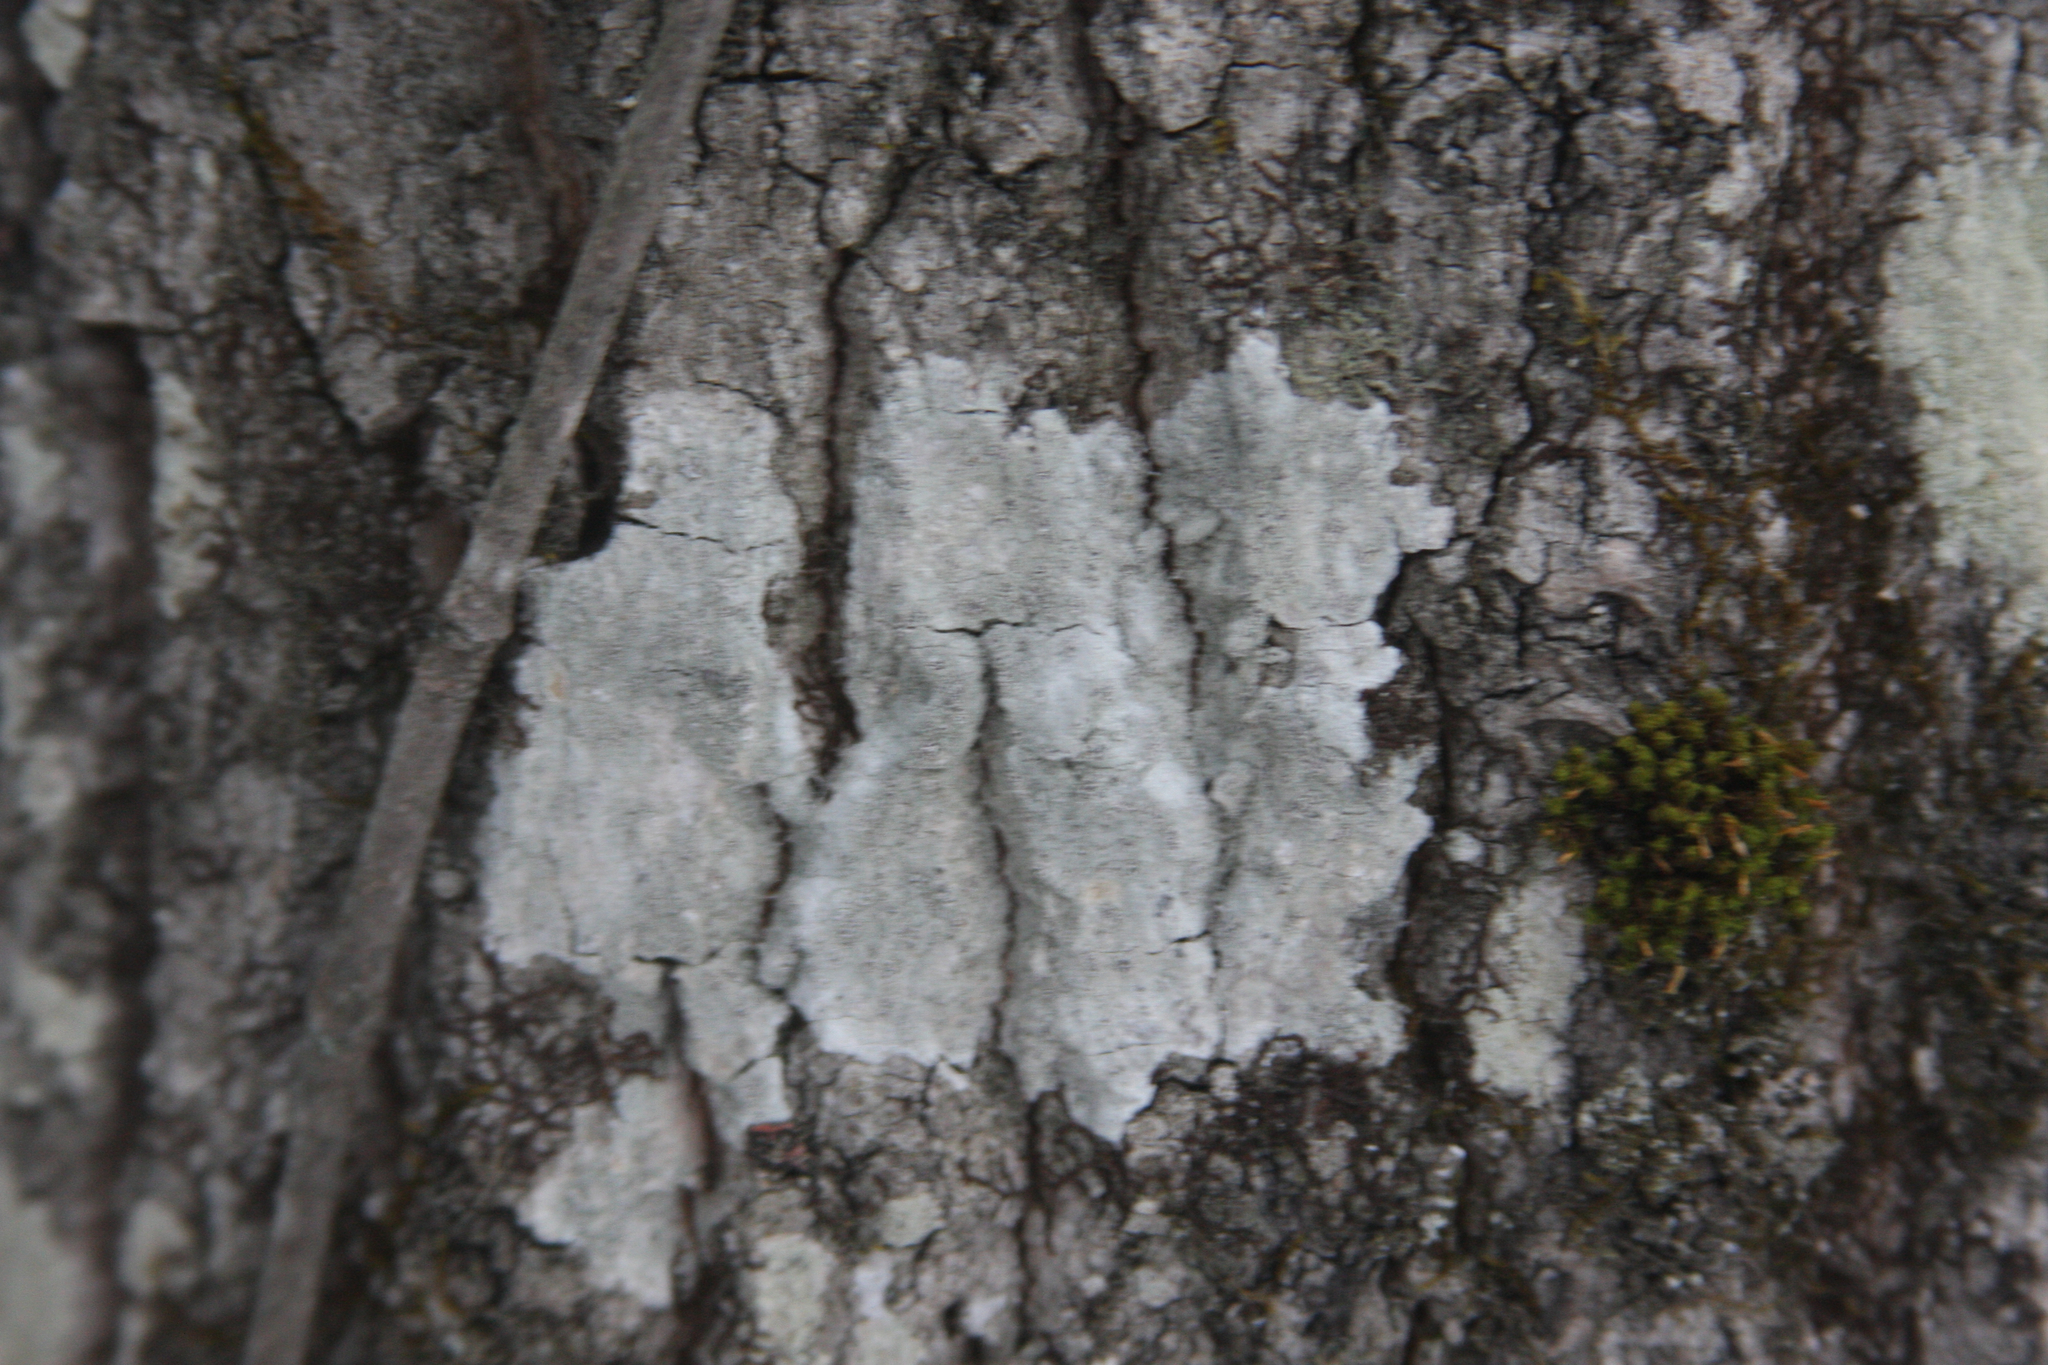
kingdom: Plantae
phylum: Bryophyta
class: Bryopsida
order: Orthotrichales
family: Orthotrichaceae
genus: Ulota
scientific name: Ulota crispa
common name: Crisped pincushion moss
